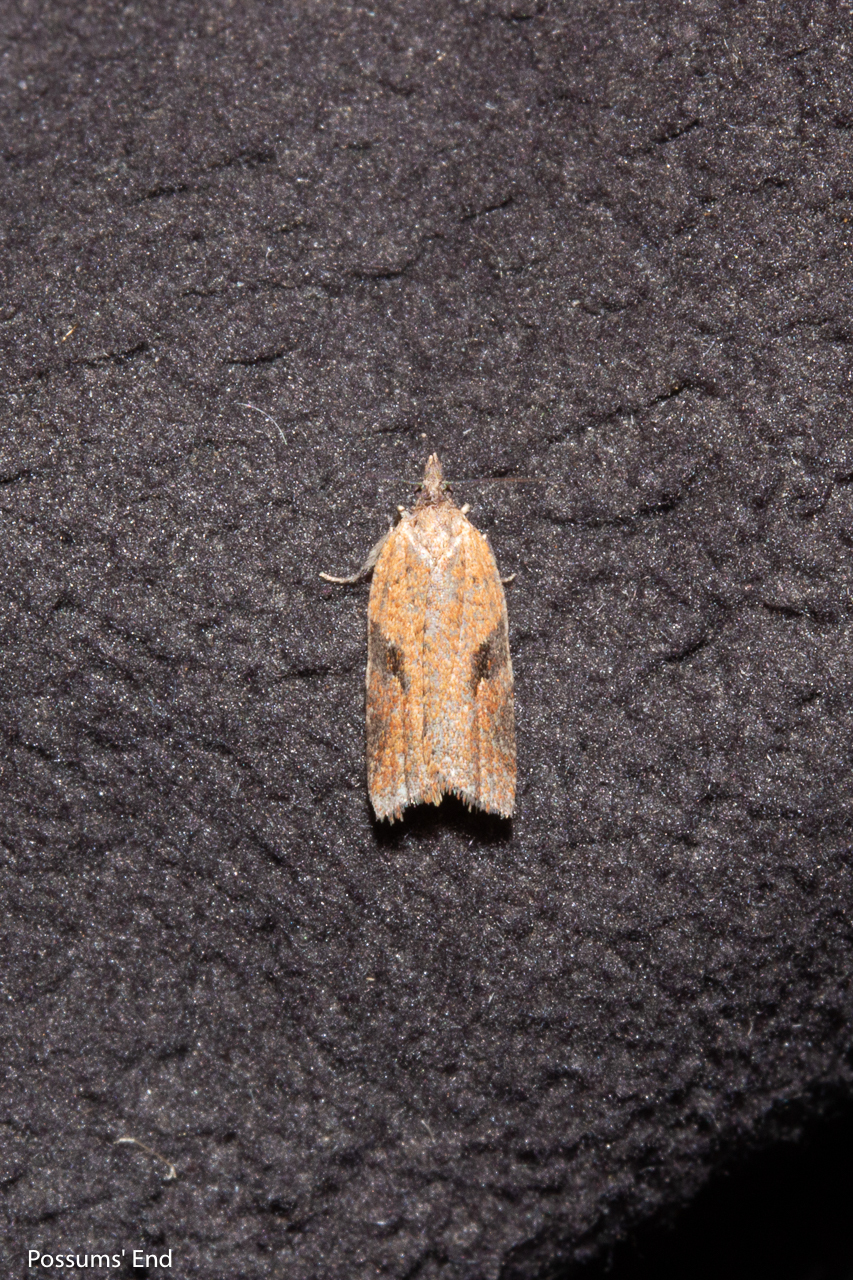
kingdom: Animalia
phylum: Arthropoda
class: Insecta
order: Lepidoptera
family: Tortricidae
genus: Capua
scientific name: Capua semiferana
